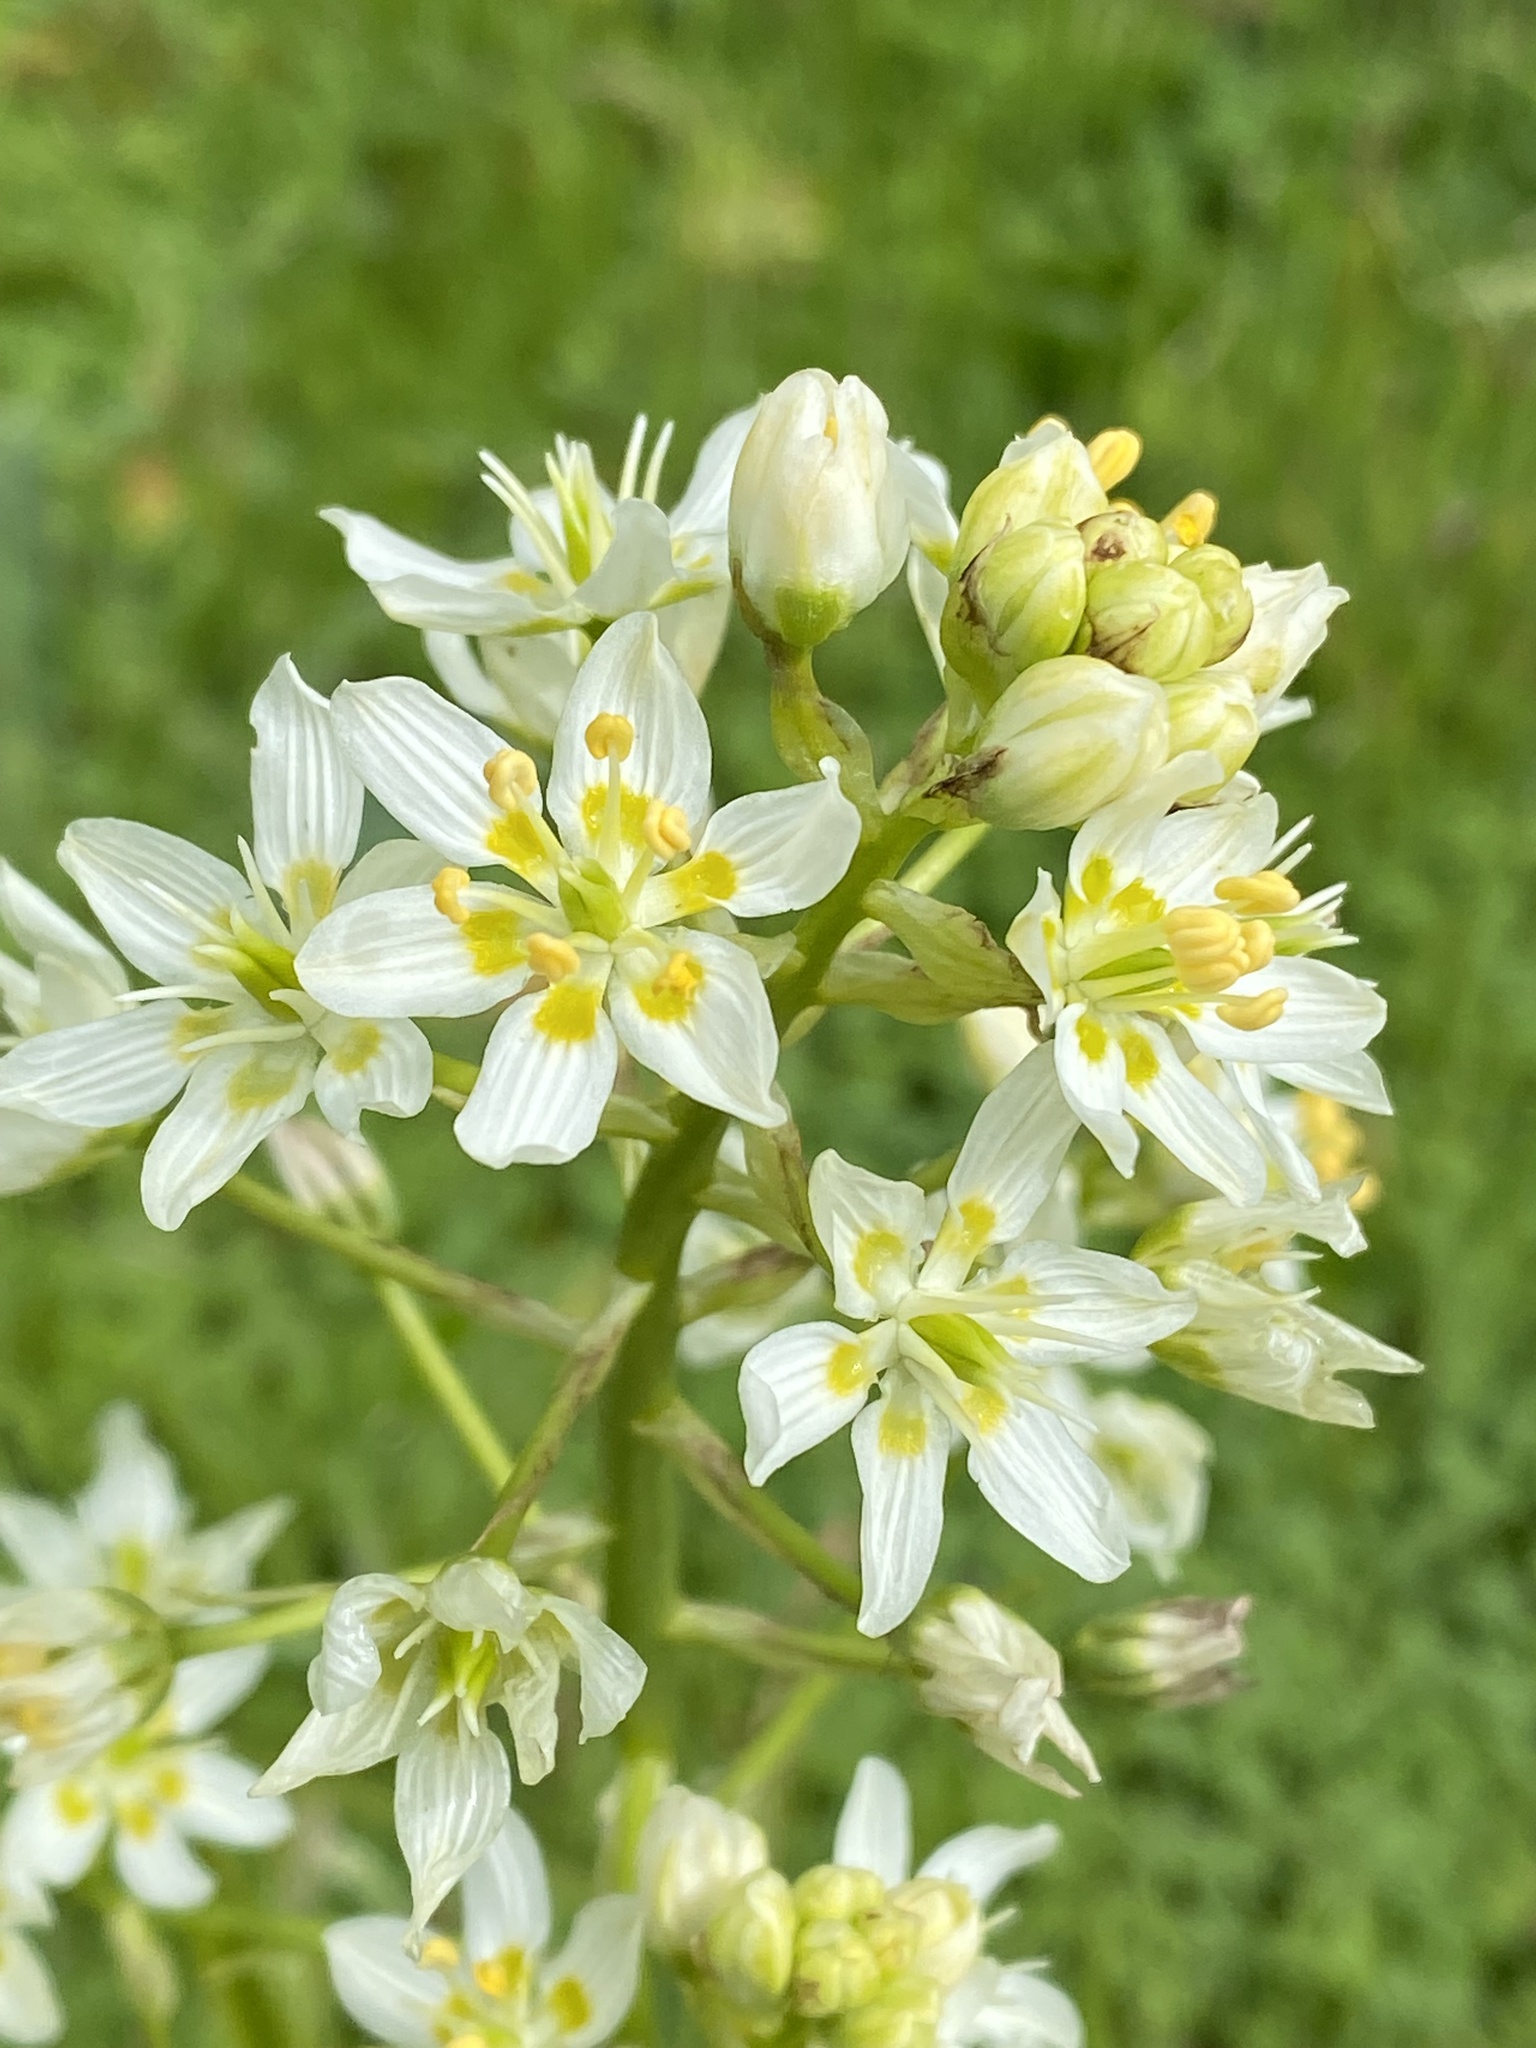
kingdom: Plantae
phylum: Tracheophyta
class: Liliopsida
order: Liliales
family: Melanthiaceae
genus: Toxicoscordion
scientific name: Toxicoscordion fremontii
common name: Fremont's death camas
